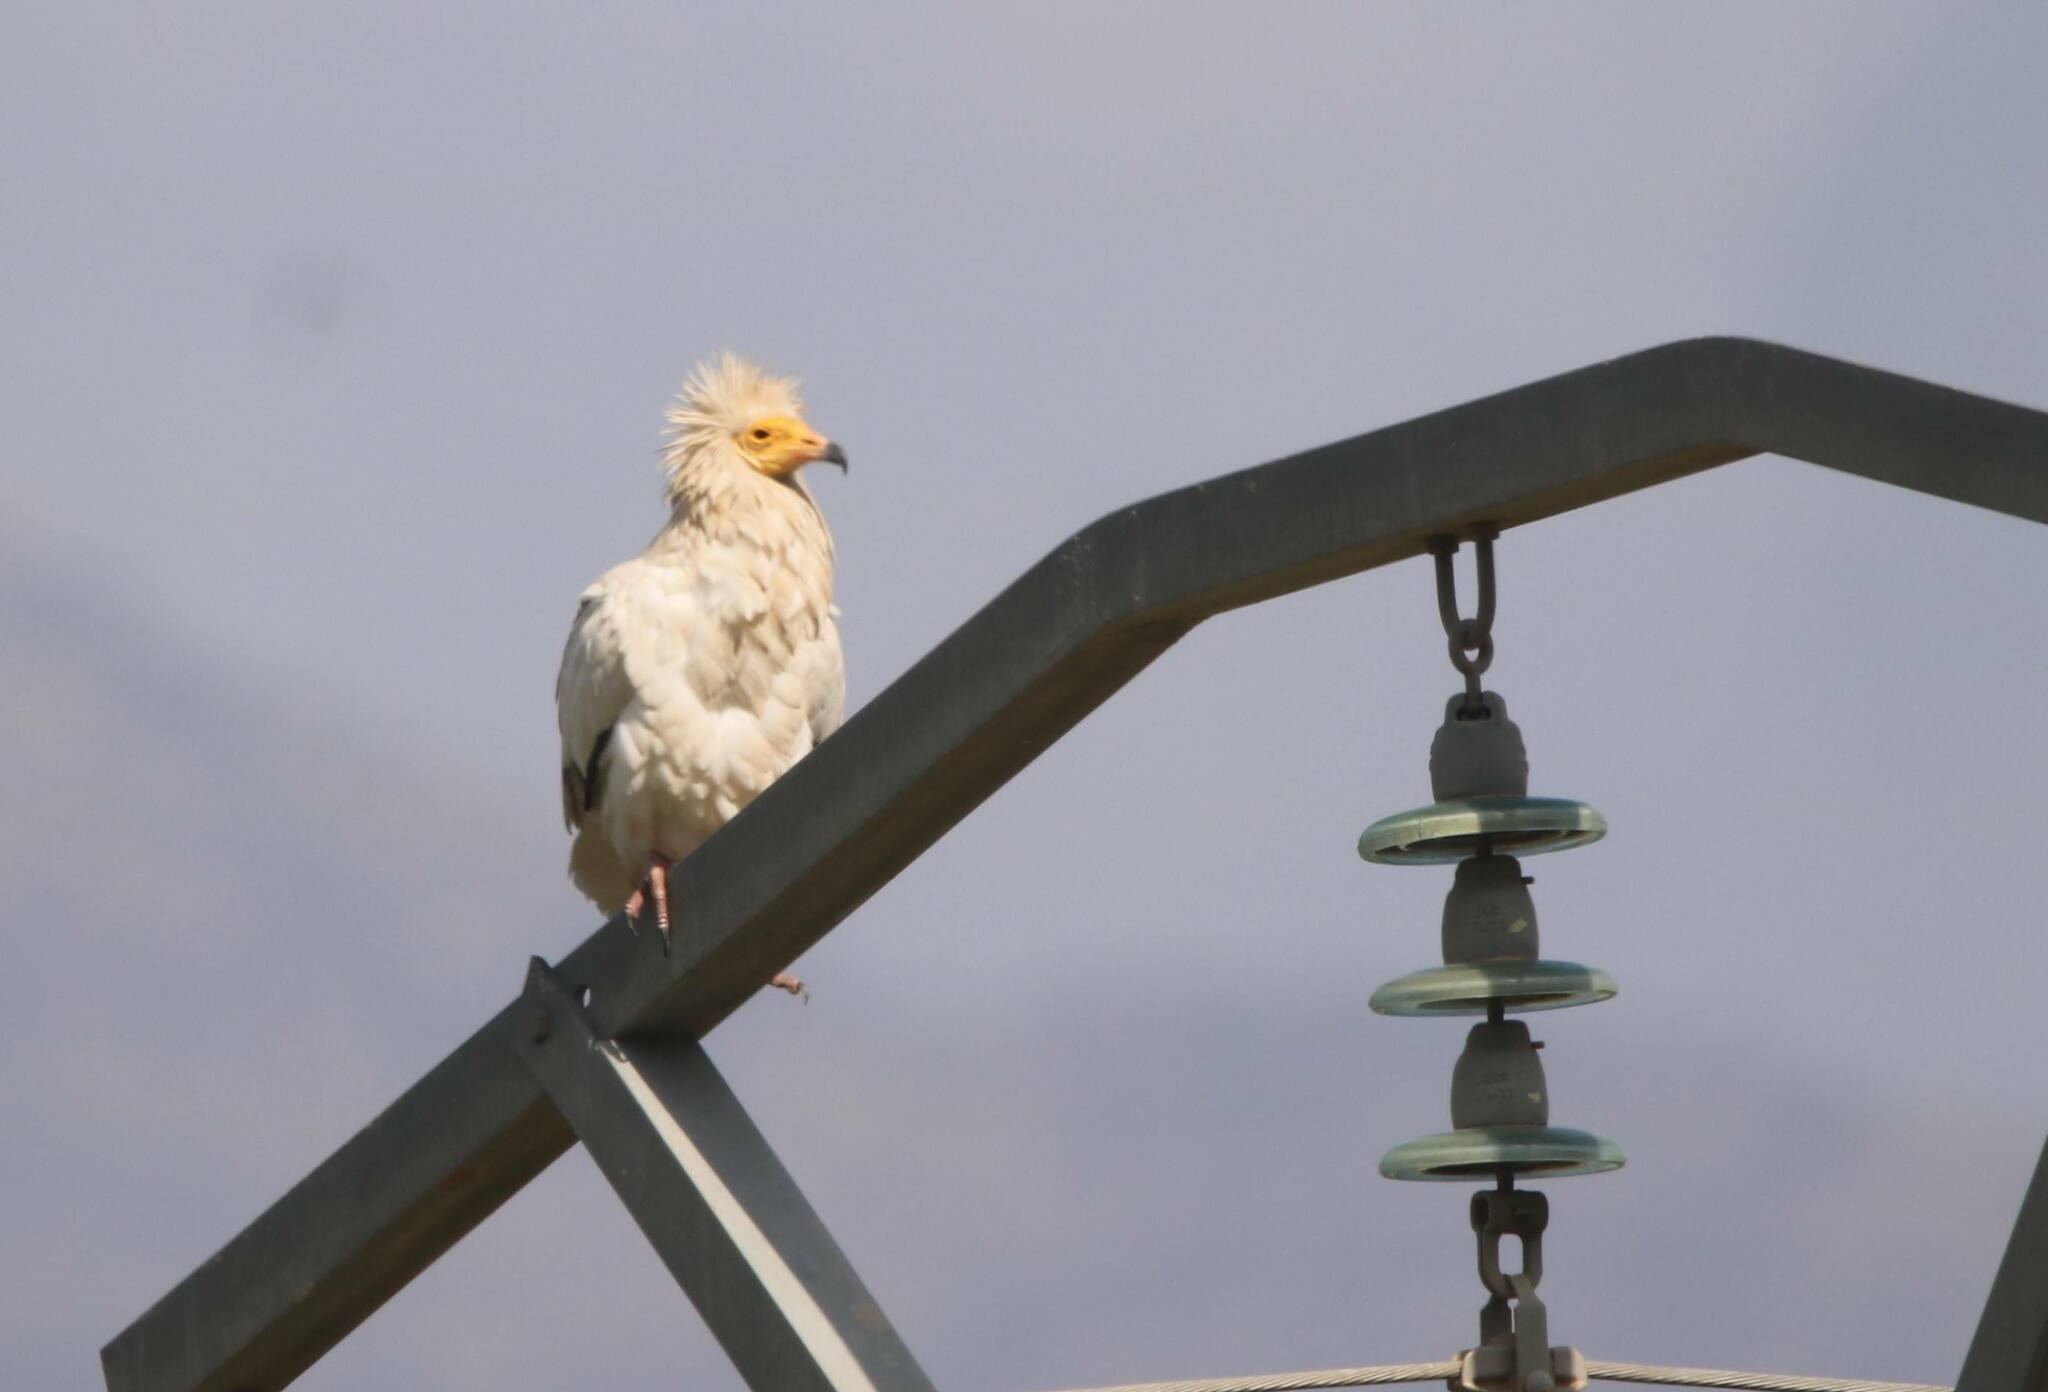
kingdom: Animalia
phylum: Chordata
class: Aves
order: Accipitriformes
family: Accipitridae
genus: Neophron
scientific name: Neophron percnopterus
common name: Egyptian vulture
